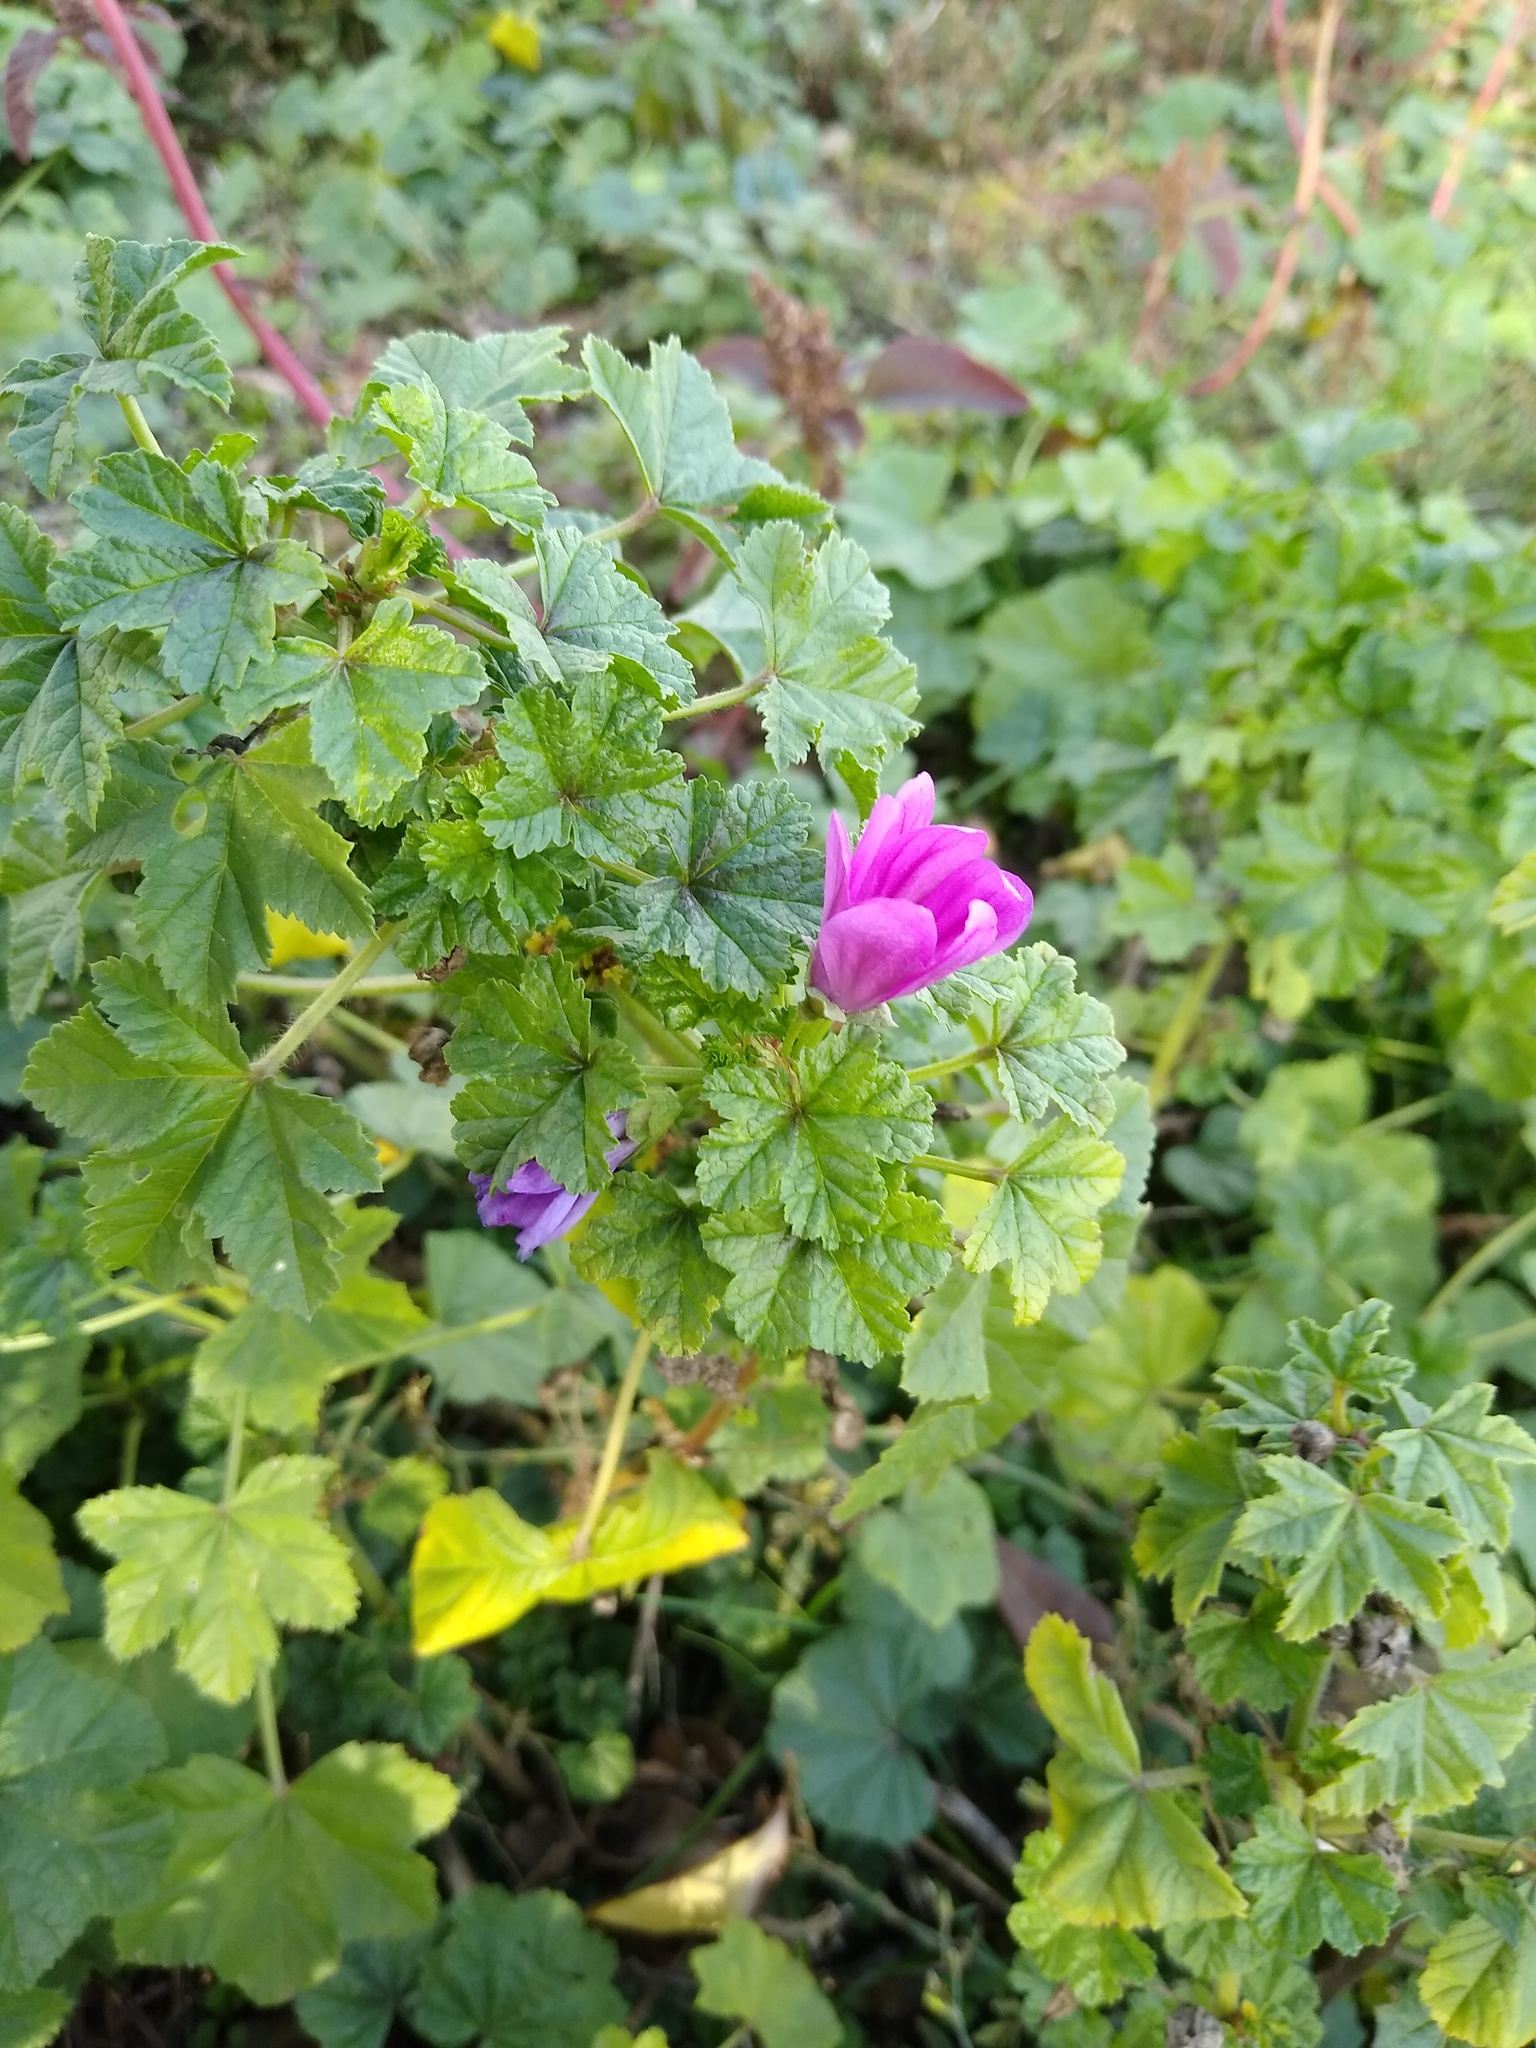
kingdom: Plantae
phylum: Tracheophyta
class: Magnoliopsida
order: Malvales
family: Malvaceae
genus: Malva
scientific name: Malva sylvestris
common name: Common mallow
